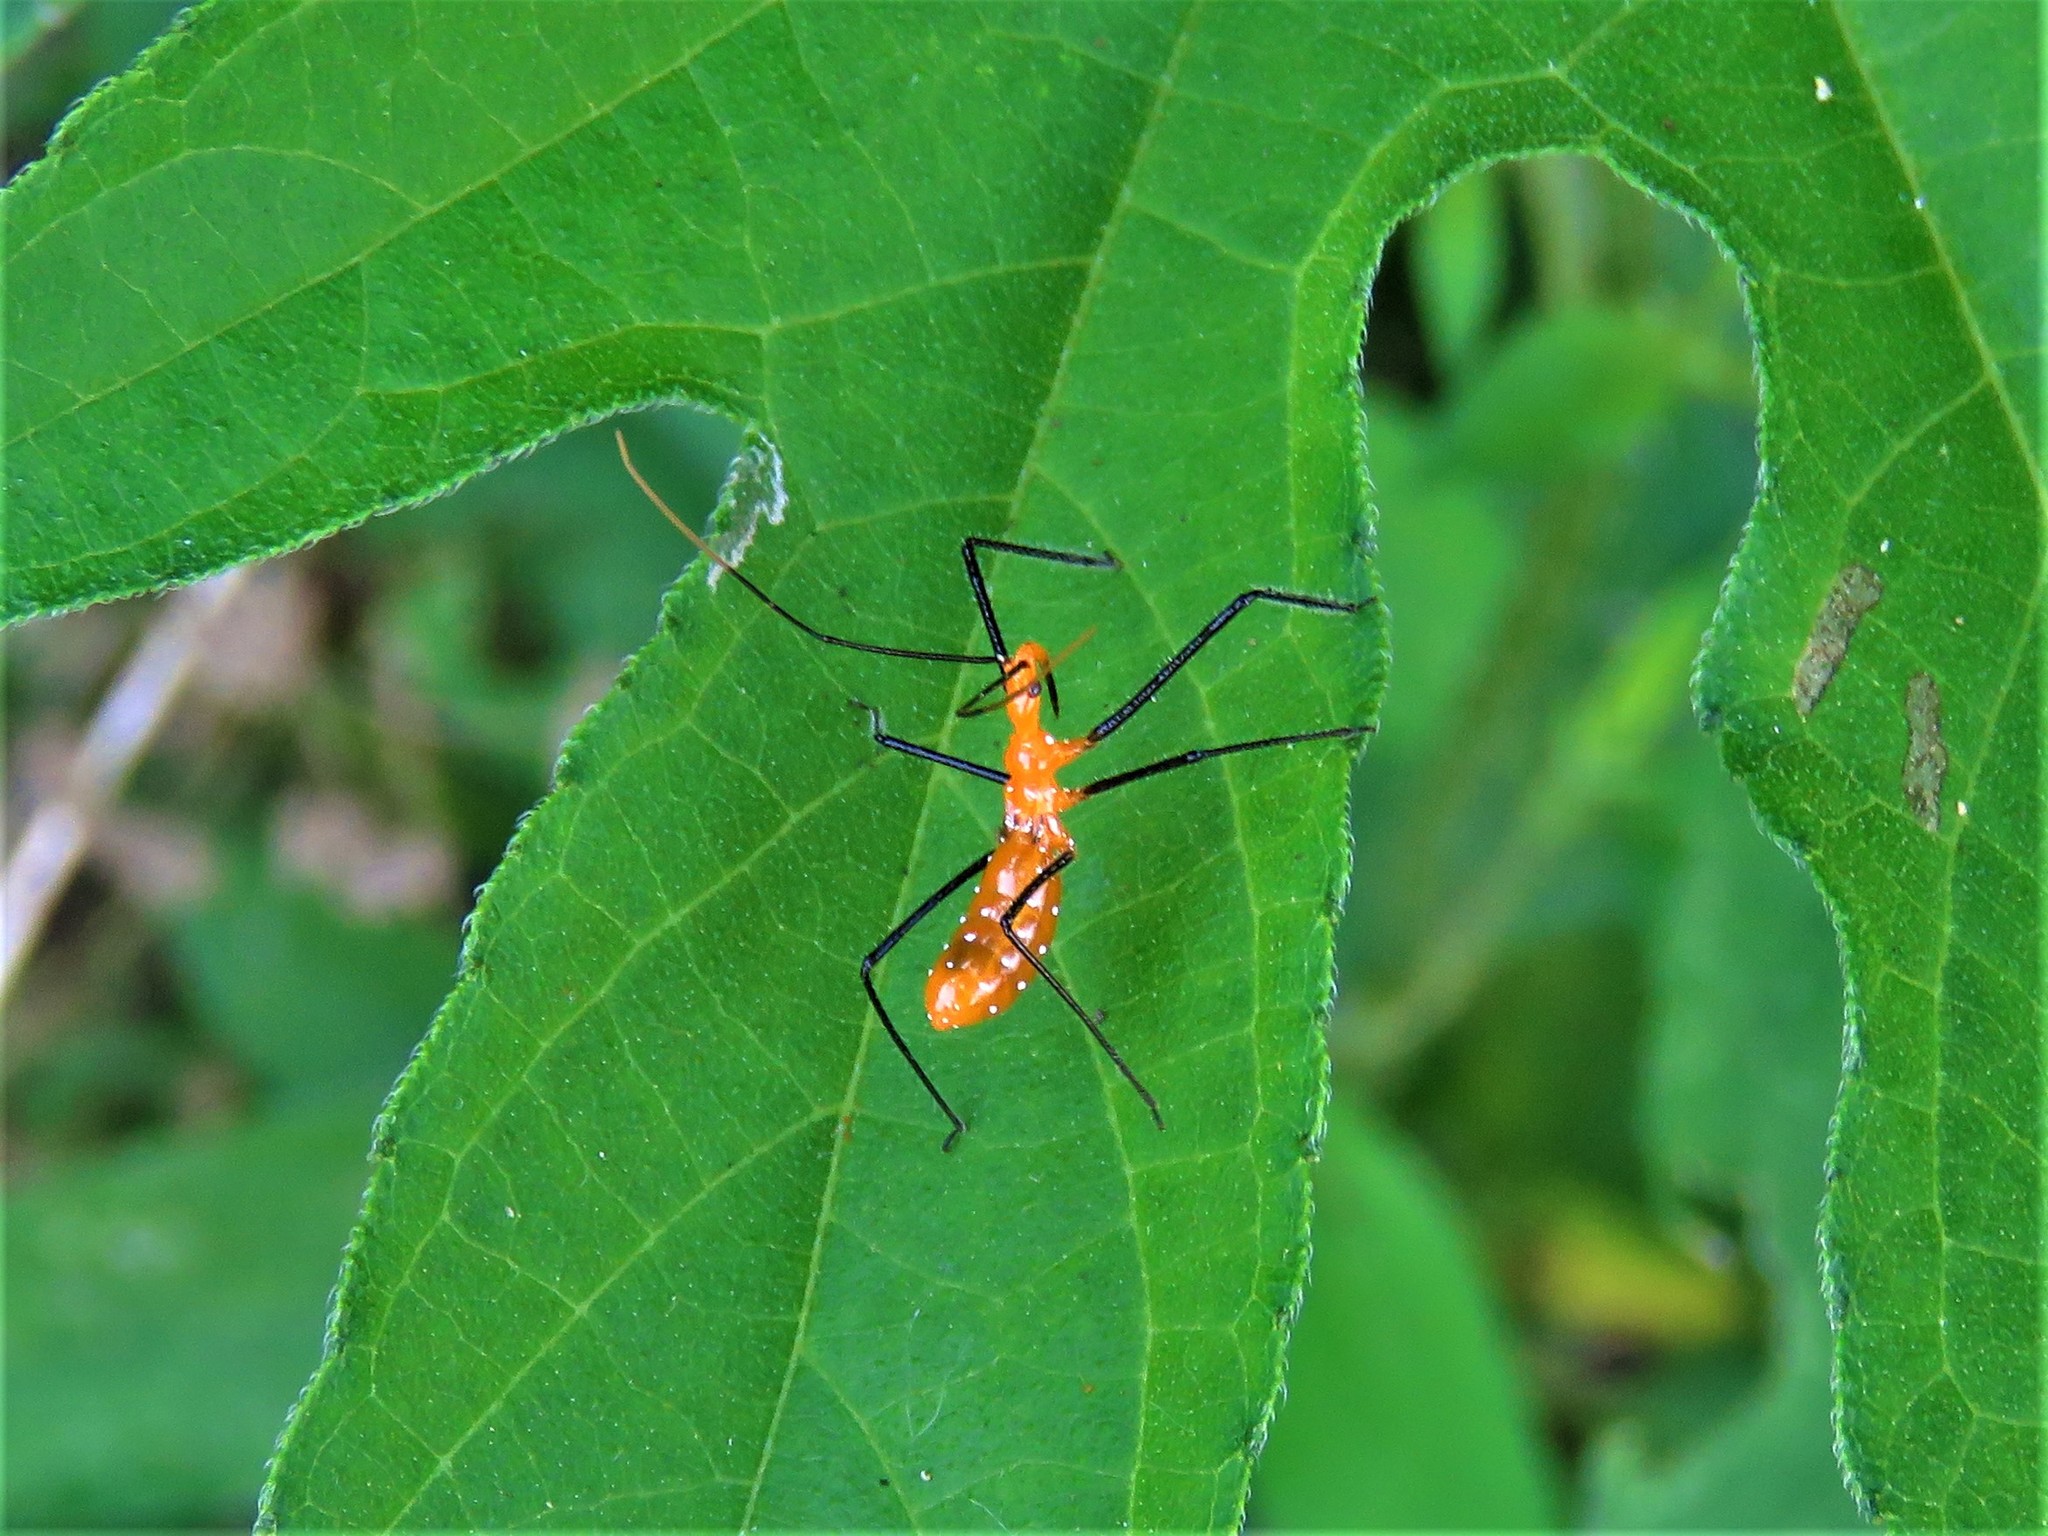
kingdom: Animalia
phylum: Arthropoda
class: Insecta
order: Hemiptera
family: Reduviidae
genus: Zelus
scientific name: Zelus longipes
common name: Milkweed assassin bug
